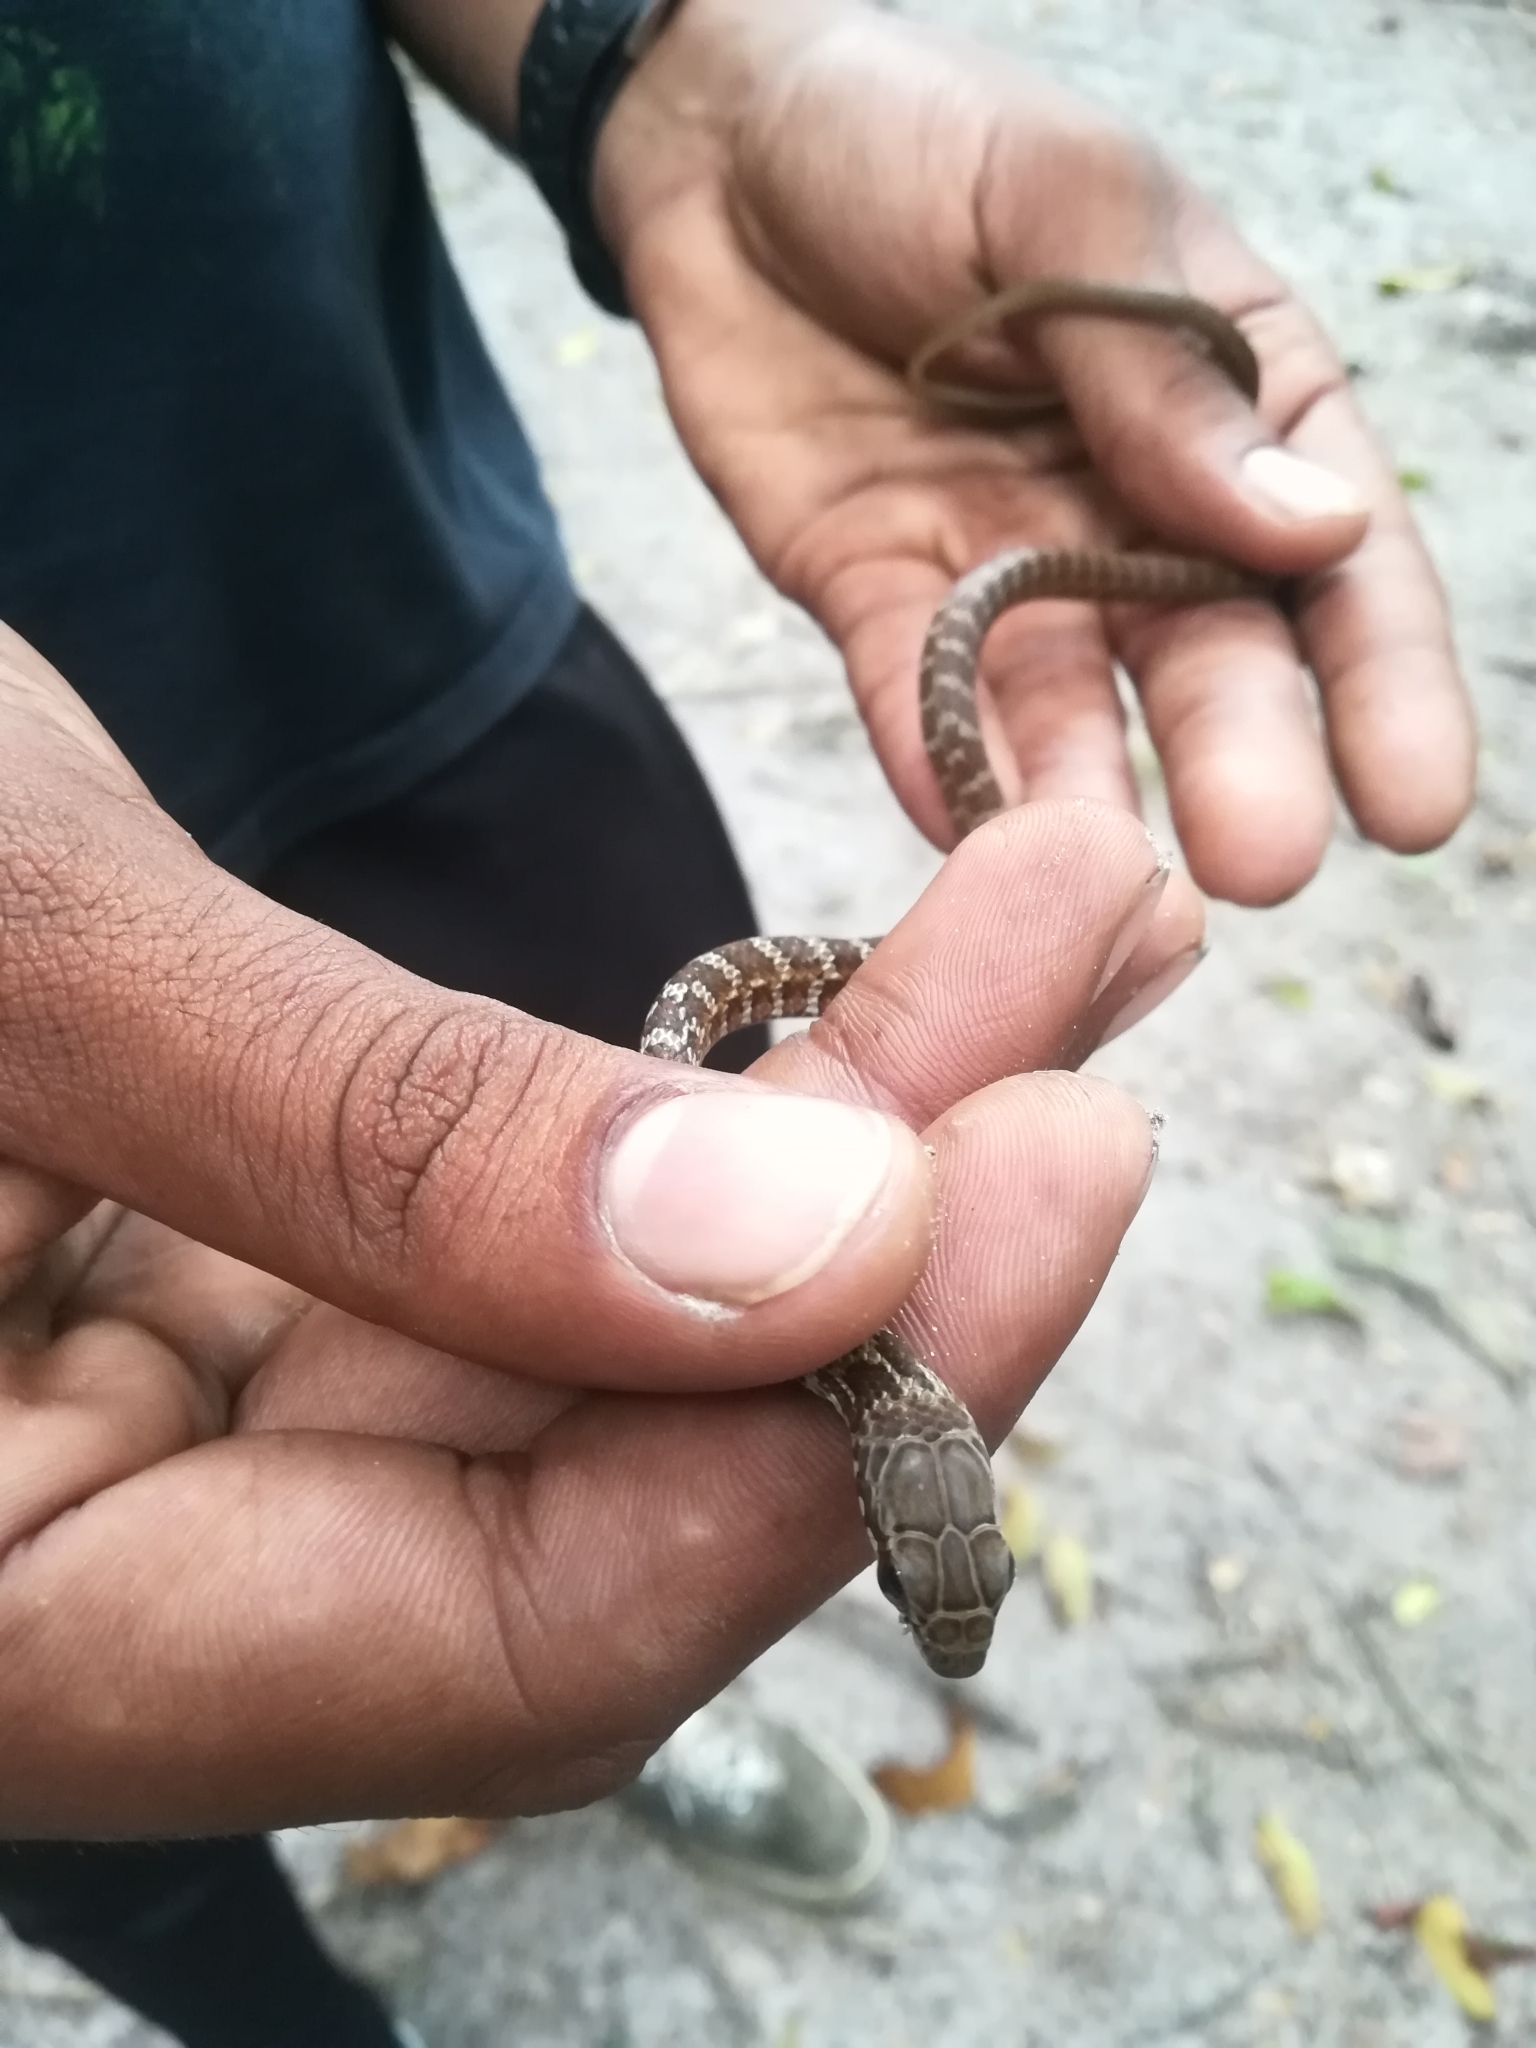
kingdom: Animalia
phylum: Chordata
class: Squamata
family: Colubridae
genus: Mastigodryas
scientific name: Mastigodryas boddaerti
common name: Boddaert's tropical racer
